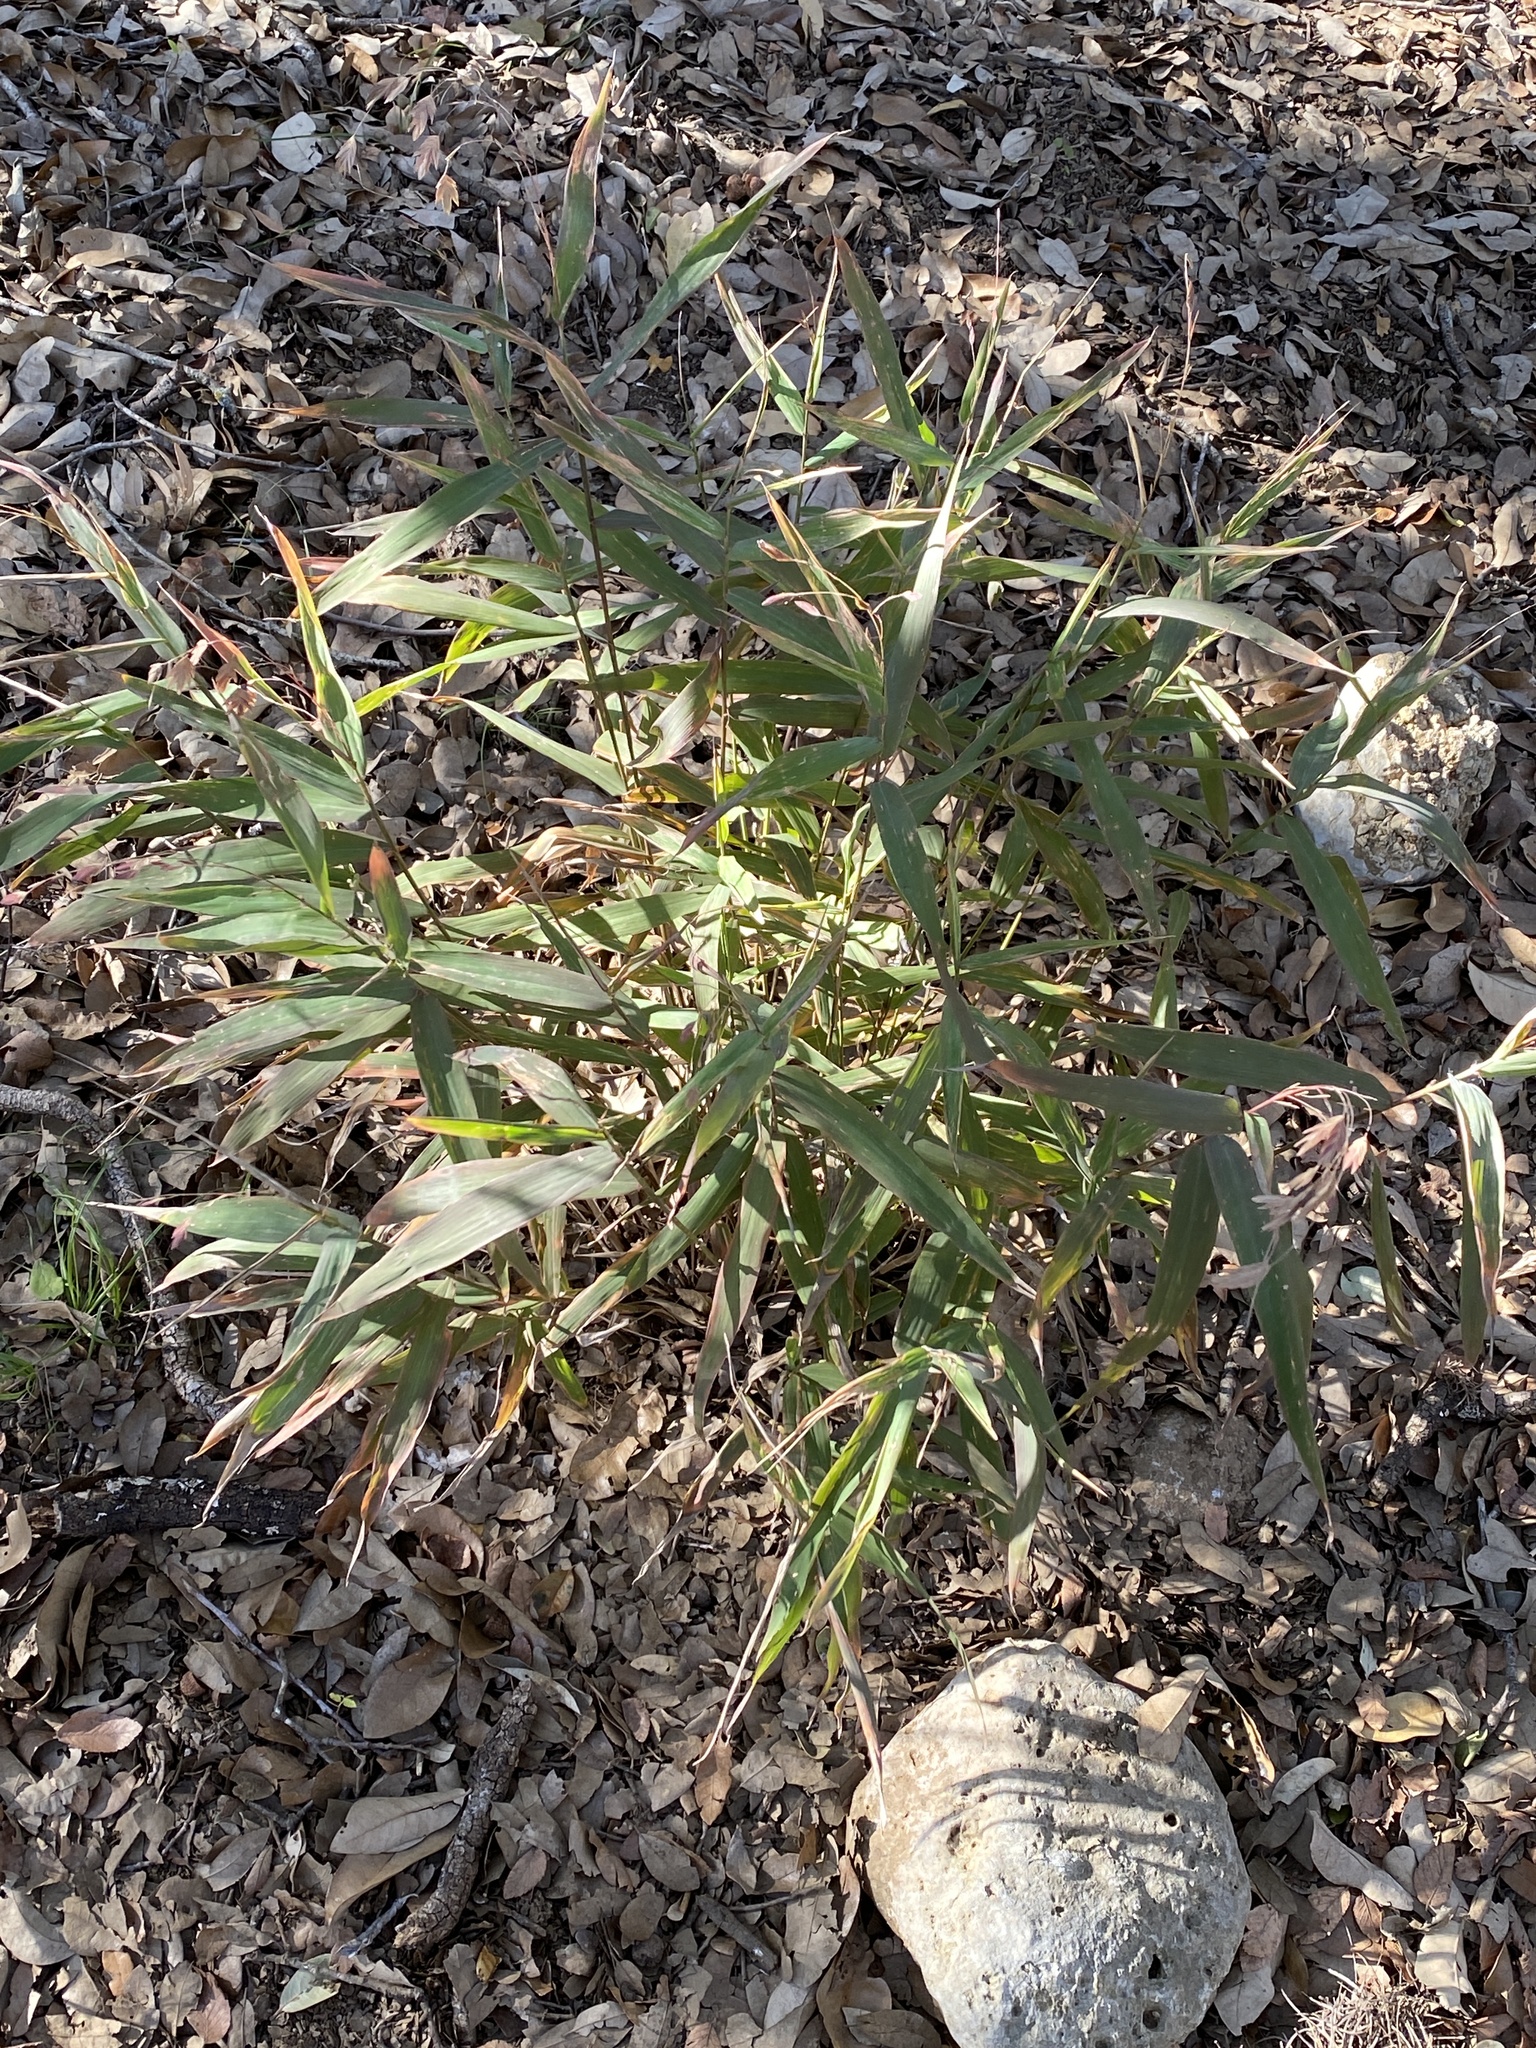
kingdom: Plantae
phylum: Tracheophyta
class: Liliopsida
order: Poales
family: Poaceae
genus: Chasmanthium
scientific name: Chasmanthium latifolium
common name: Broad-leaved chasmanthium
